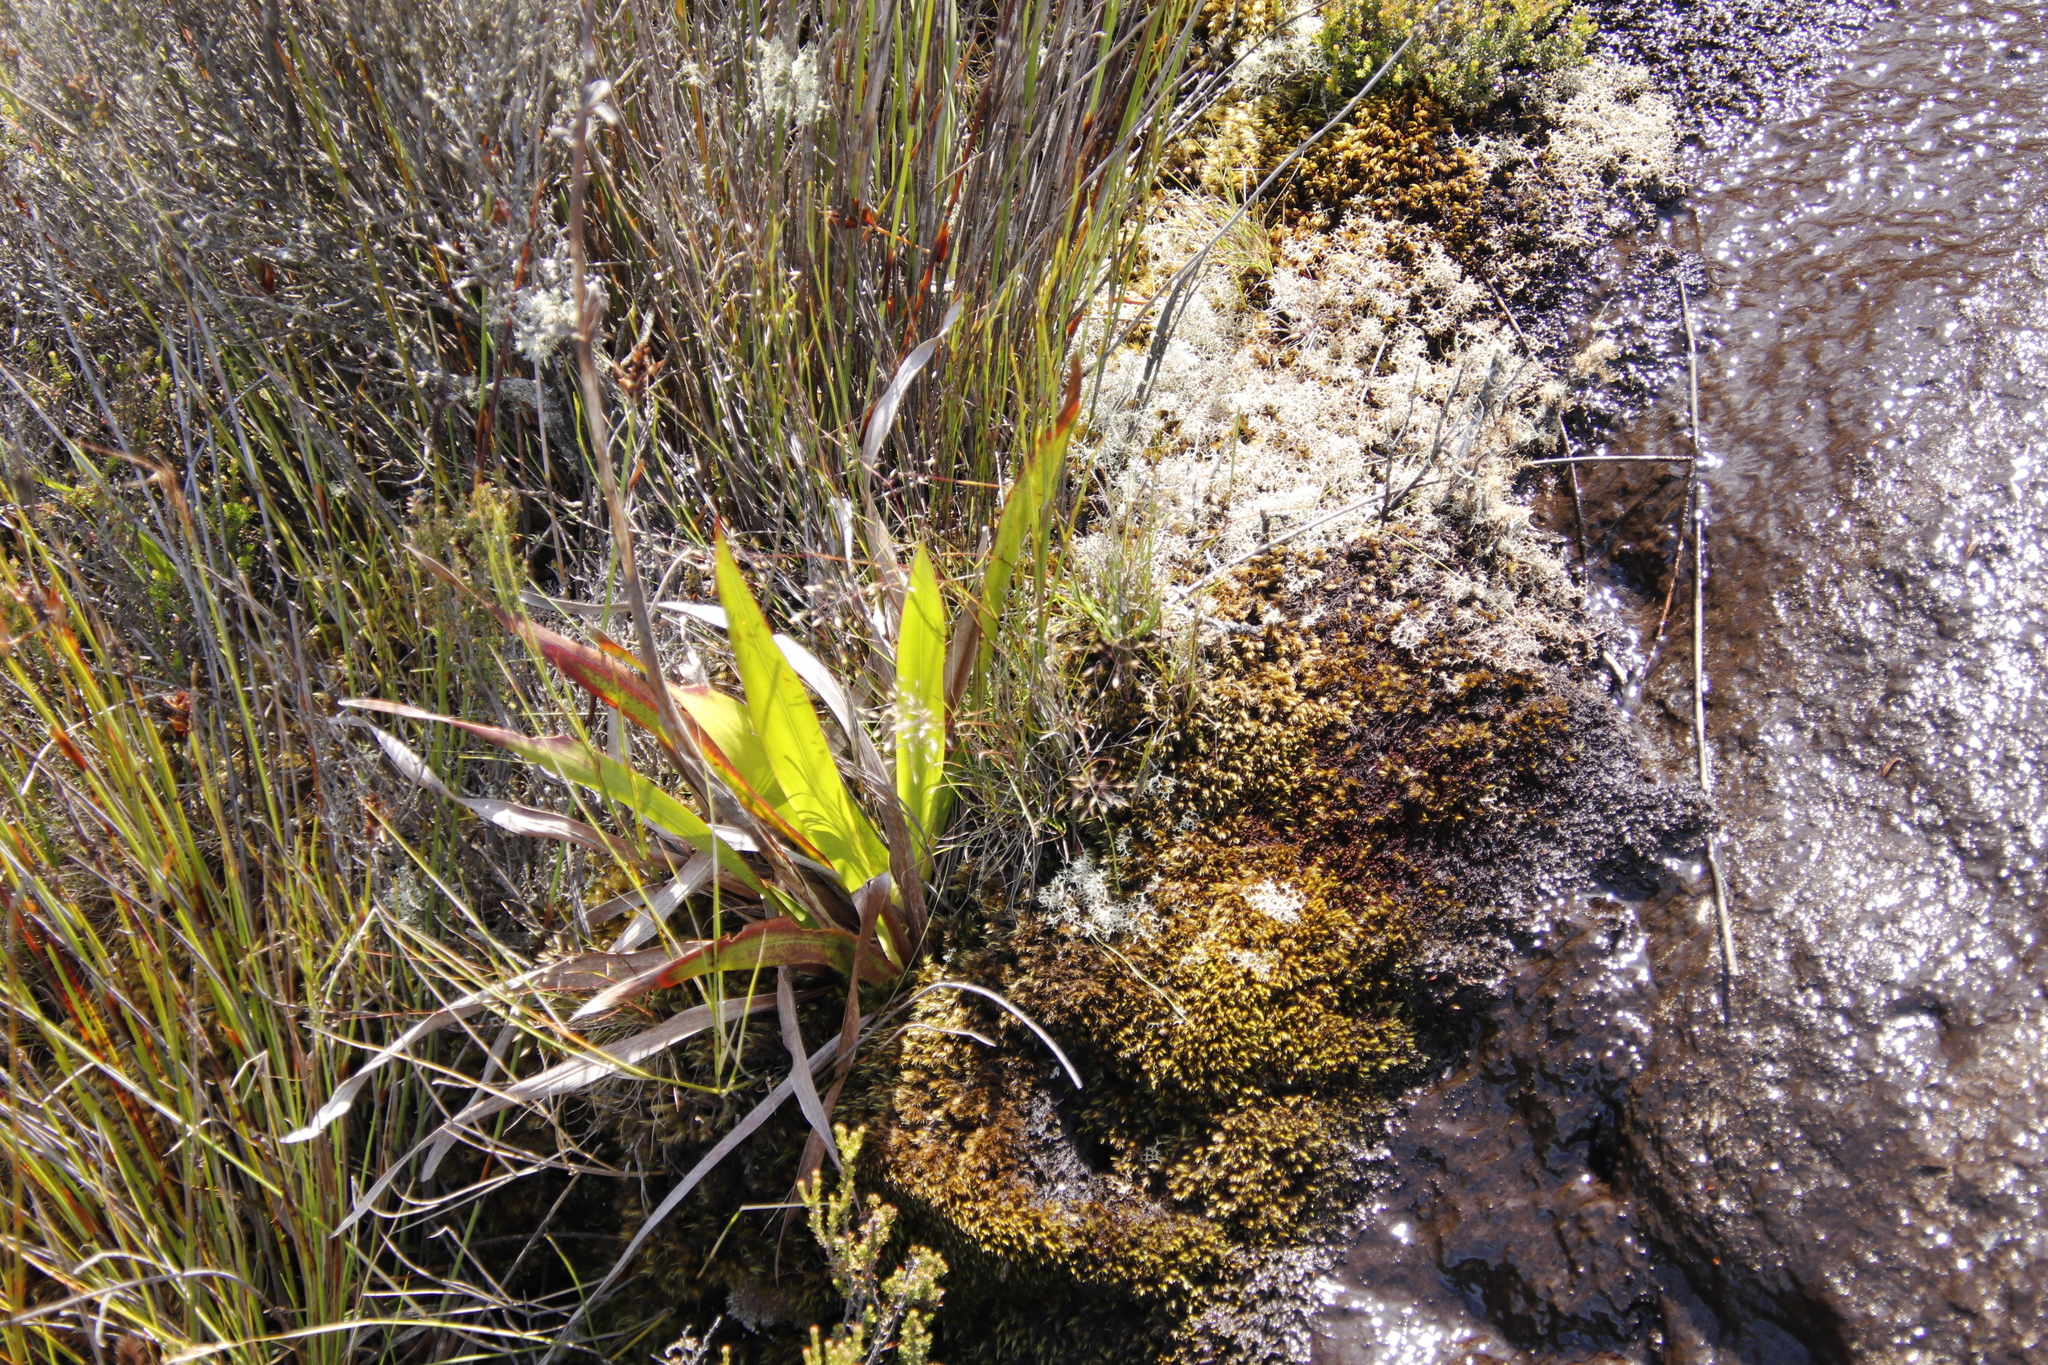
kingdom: Plantae
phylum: Bryophyta
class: Bryopsida
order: Dicranales
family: Dicranaceae
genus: Dicranoloma
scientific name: Dicranoloma billardieri
